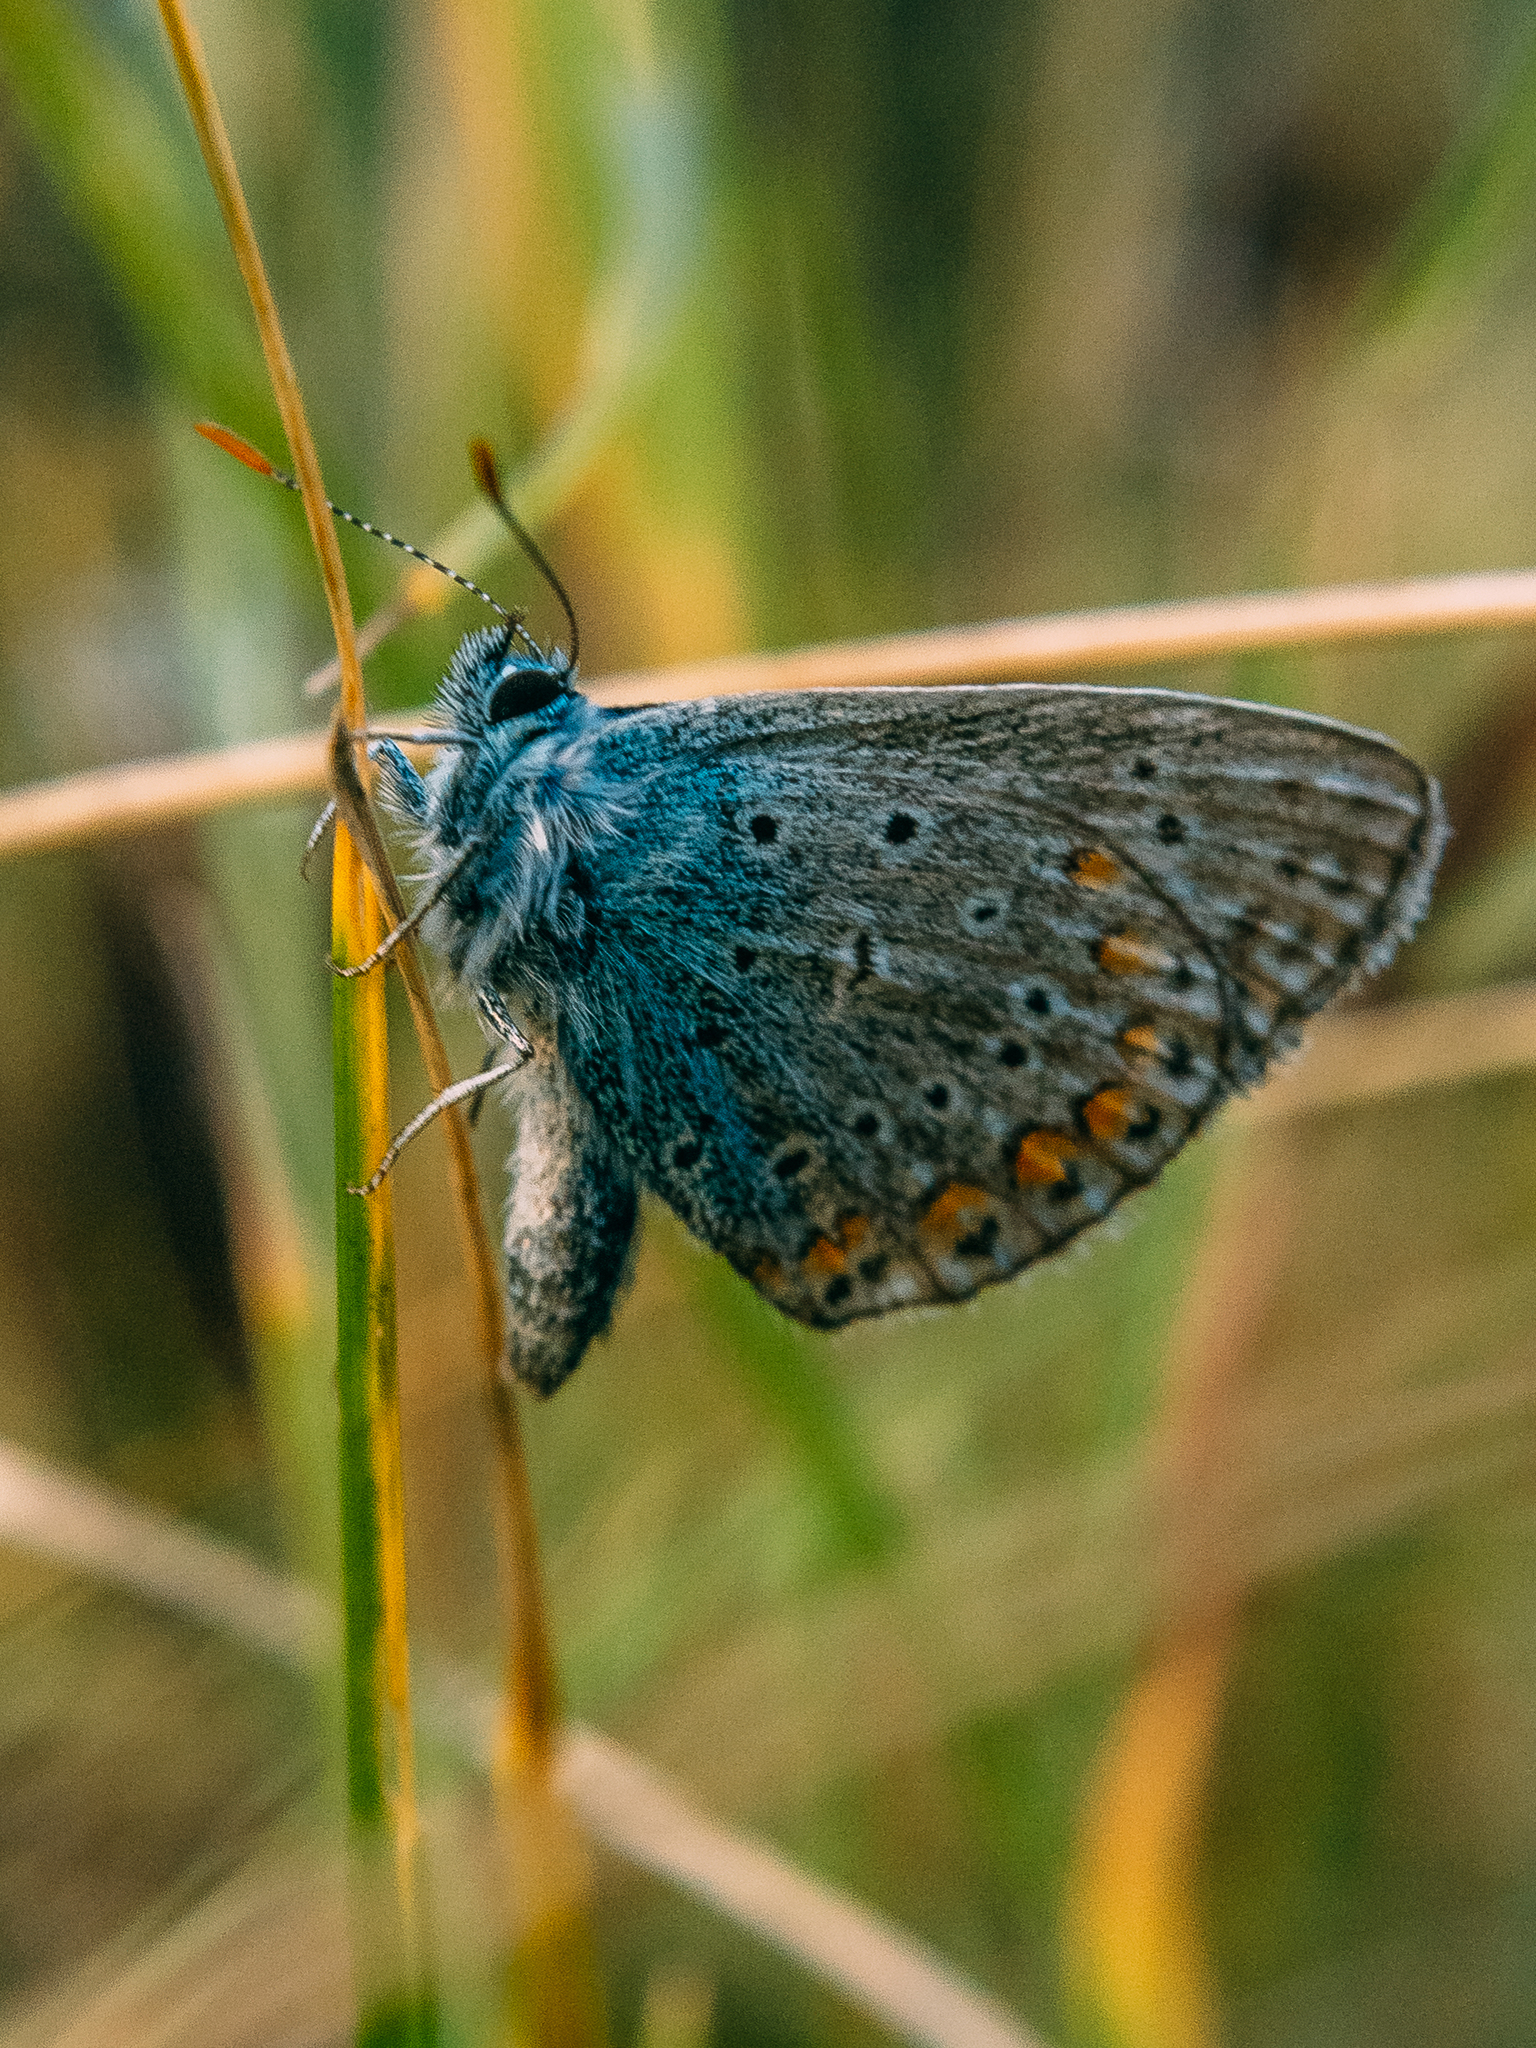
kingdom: Animalia
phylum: Arthropoda
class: Insecta
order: Lepidoptera
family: Lycaenidae
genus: Polyommatus
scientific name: Polyommatus icarus
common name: Common blue
